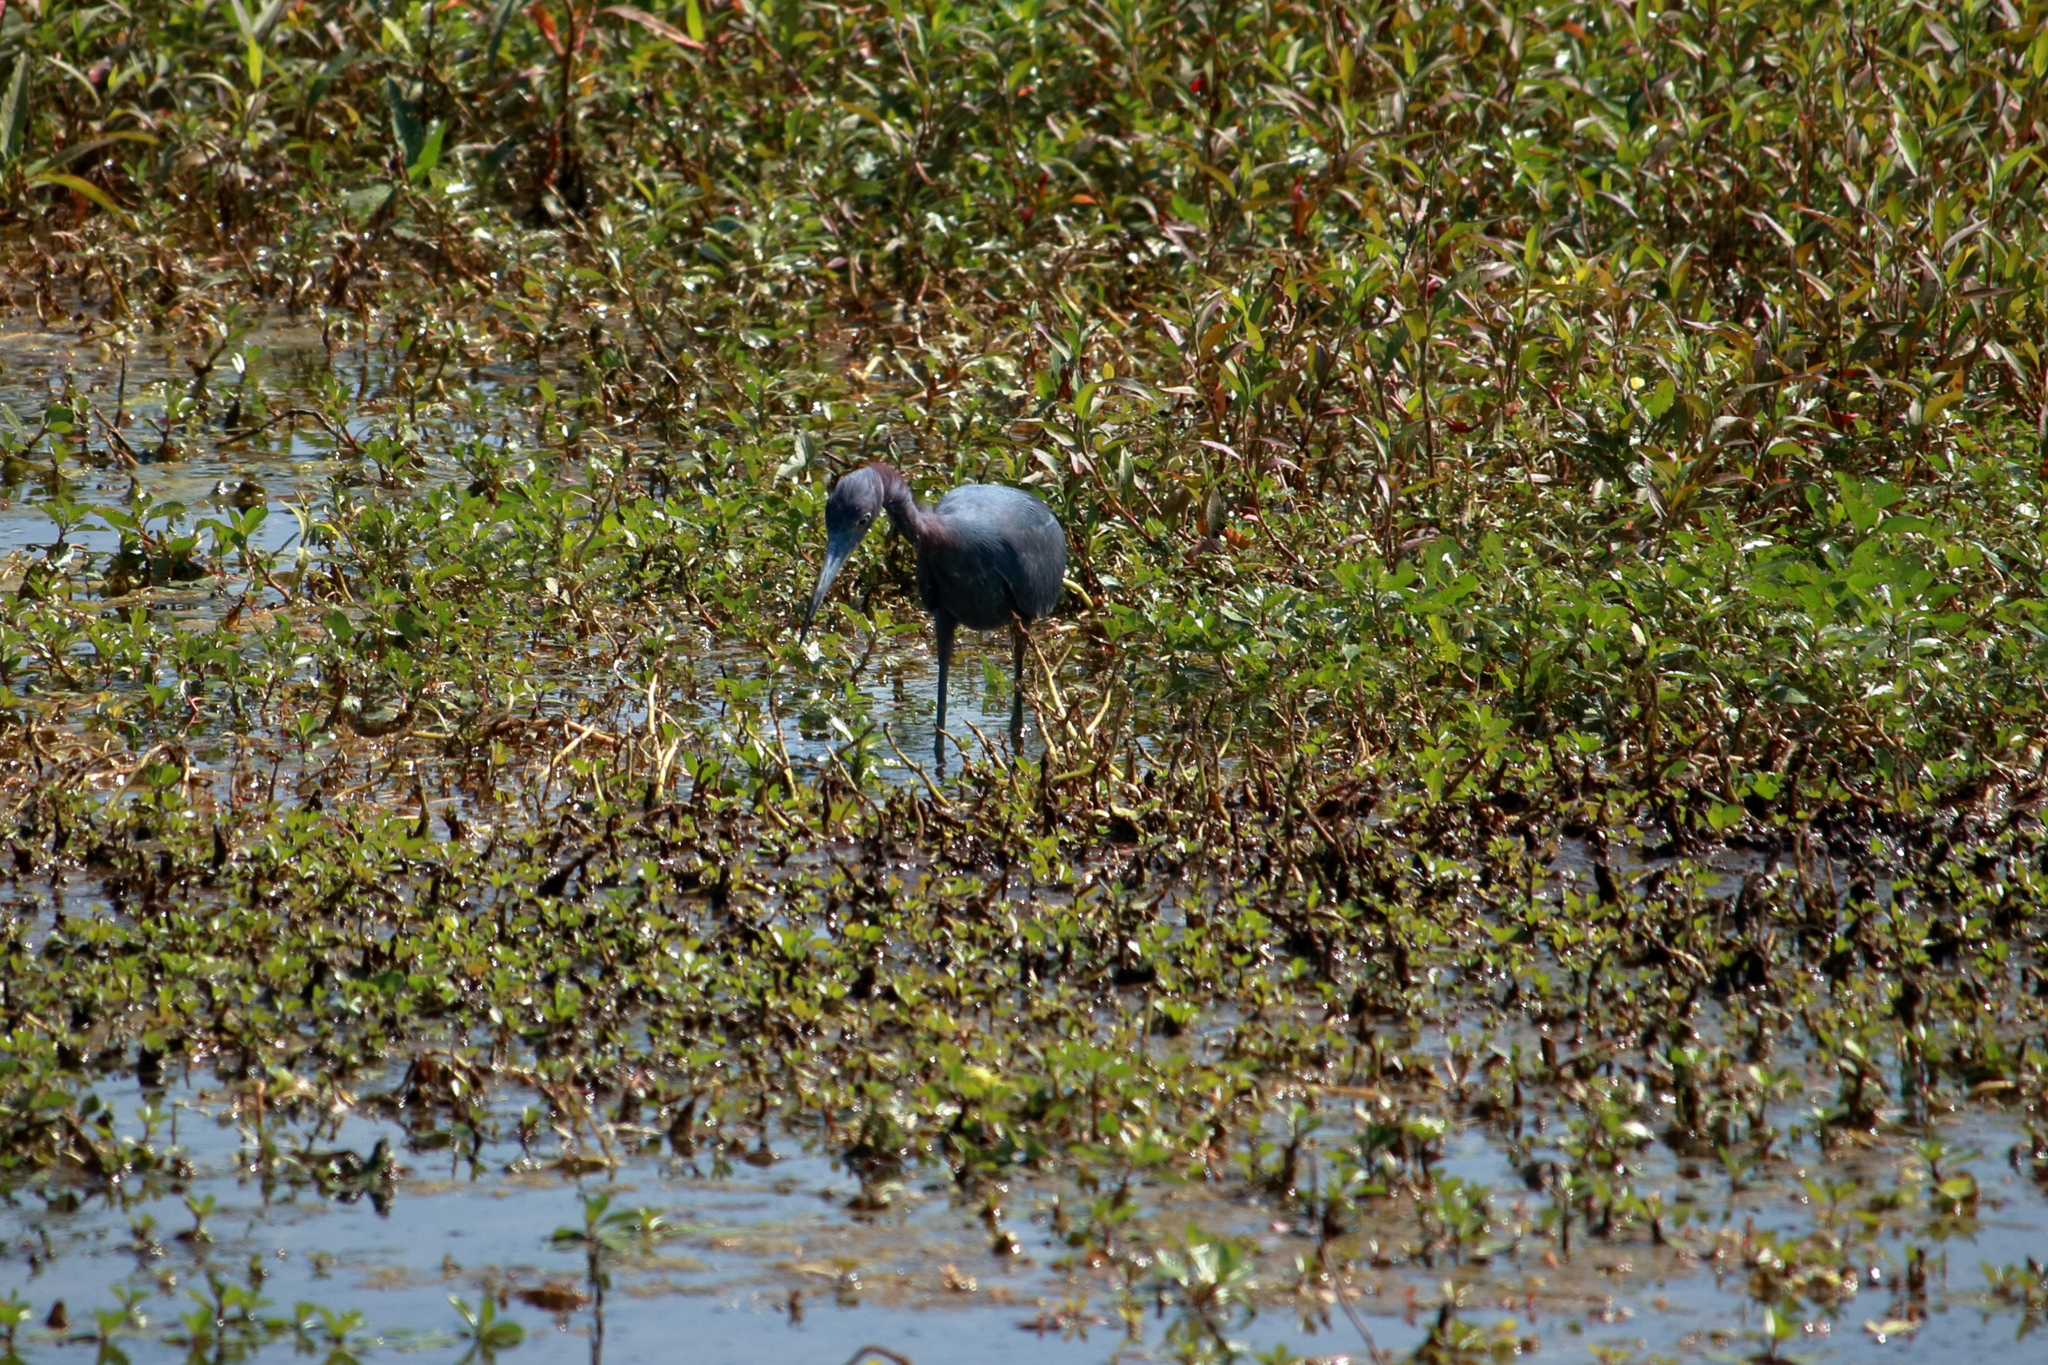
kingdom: Animalia
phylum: Chordata
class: Aves
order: Pelecaniformes
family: Ardeidae
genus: Egretta
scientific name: Egretta caerulea
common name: Little blue heron
